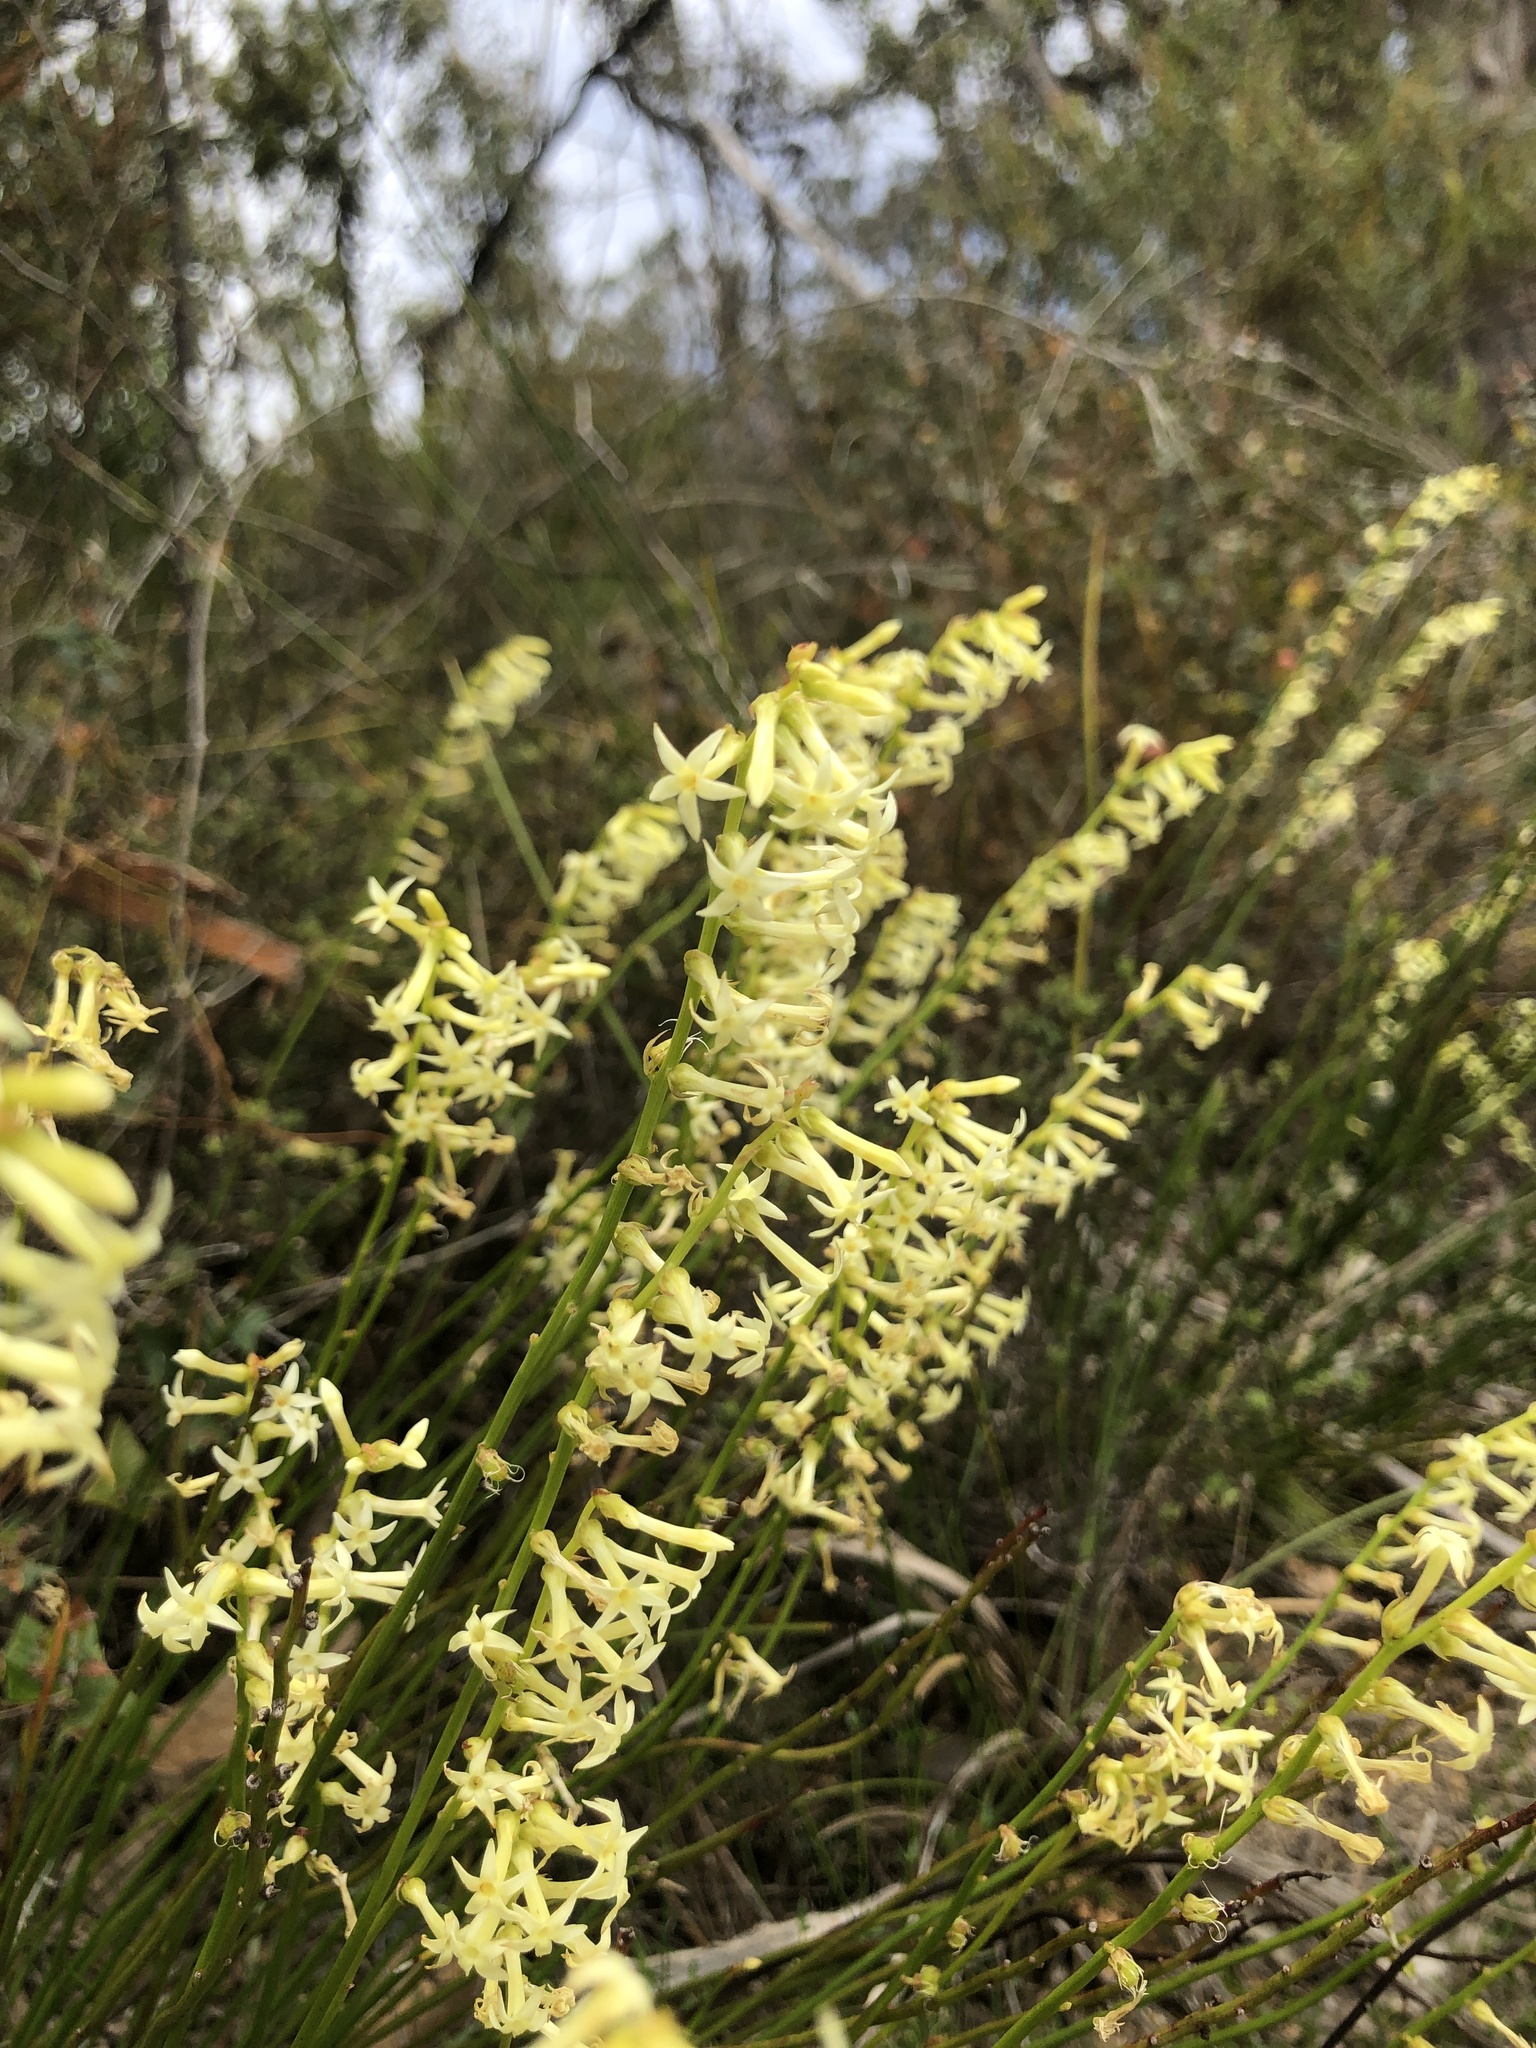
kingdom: Plantae
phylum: Tracheophyta
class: Magnoliopsida
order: Celastrales
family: Celastraceae
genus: Stackhousia
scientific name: Stackhousia monogyna
